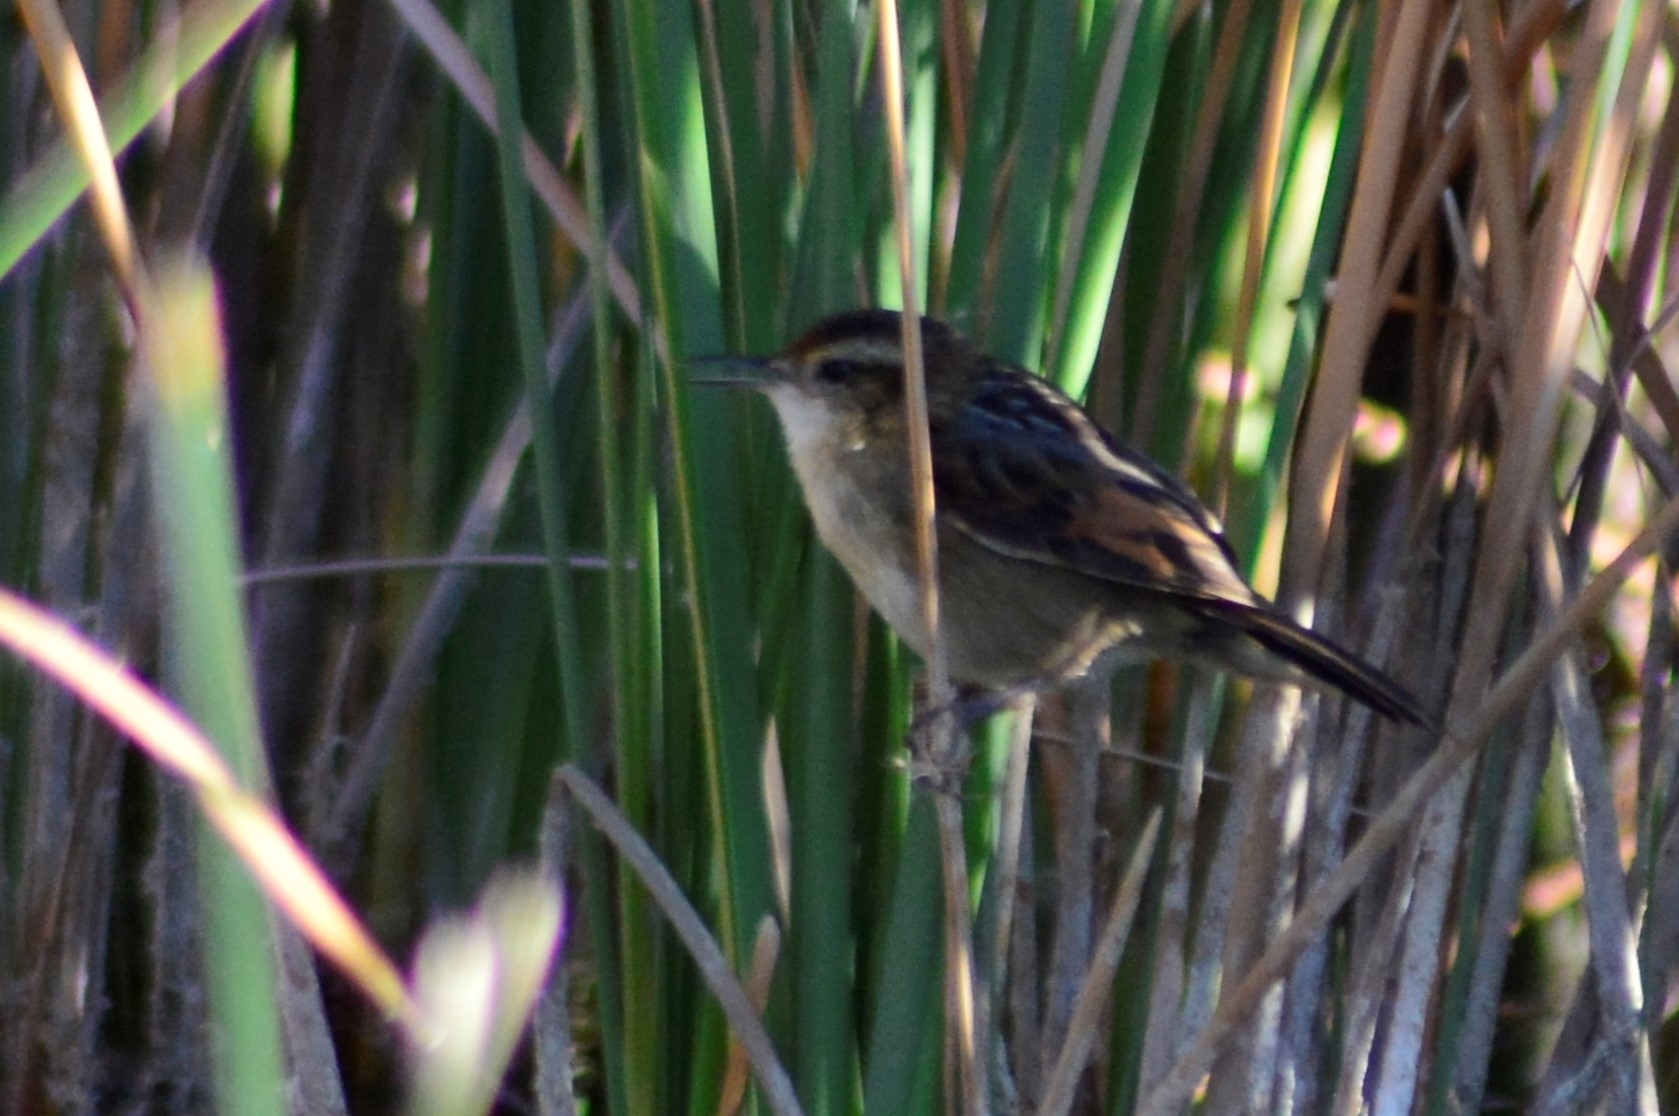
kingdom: Animalia
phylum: Chordata
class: Aves
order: Passeriformes
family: Furnariidae
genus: Phleocryptes
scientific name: Phleocryptes melanops
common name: Wren-like rushbird
